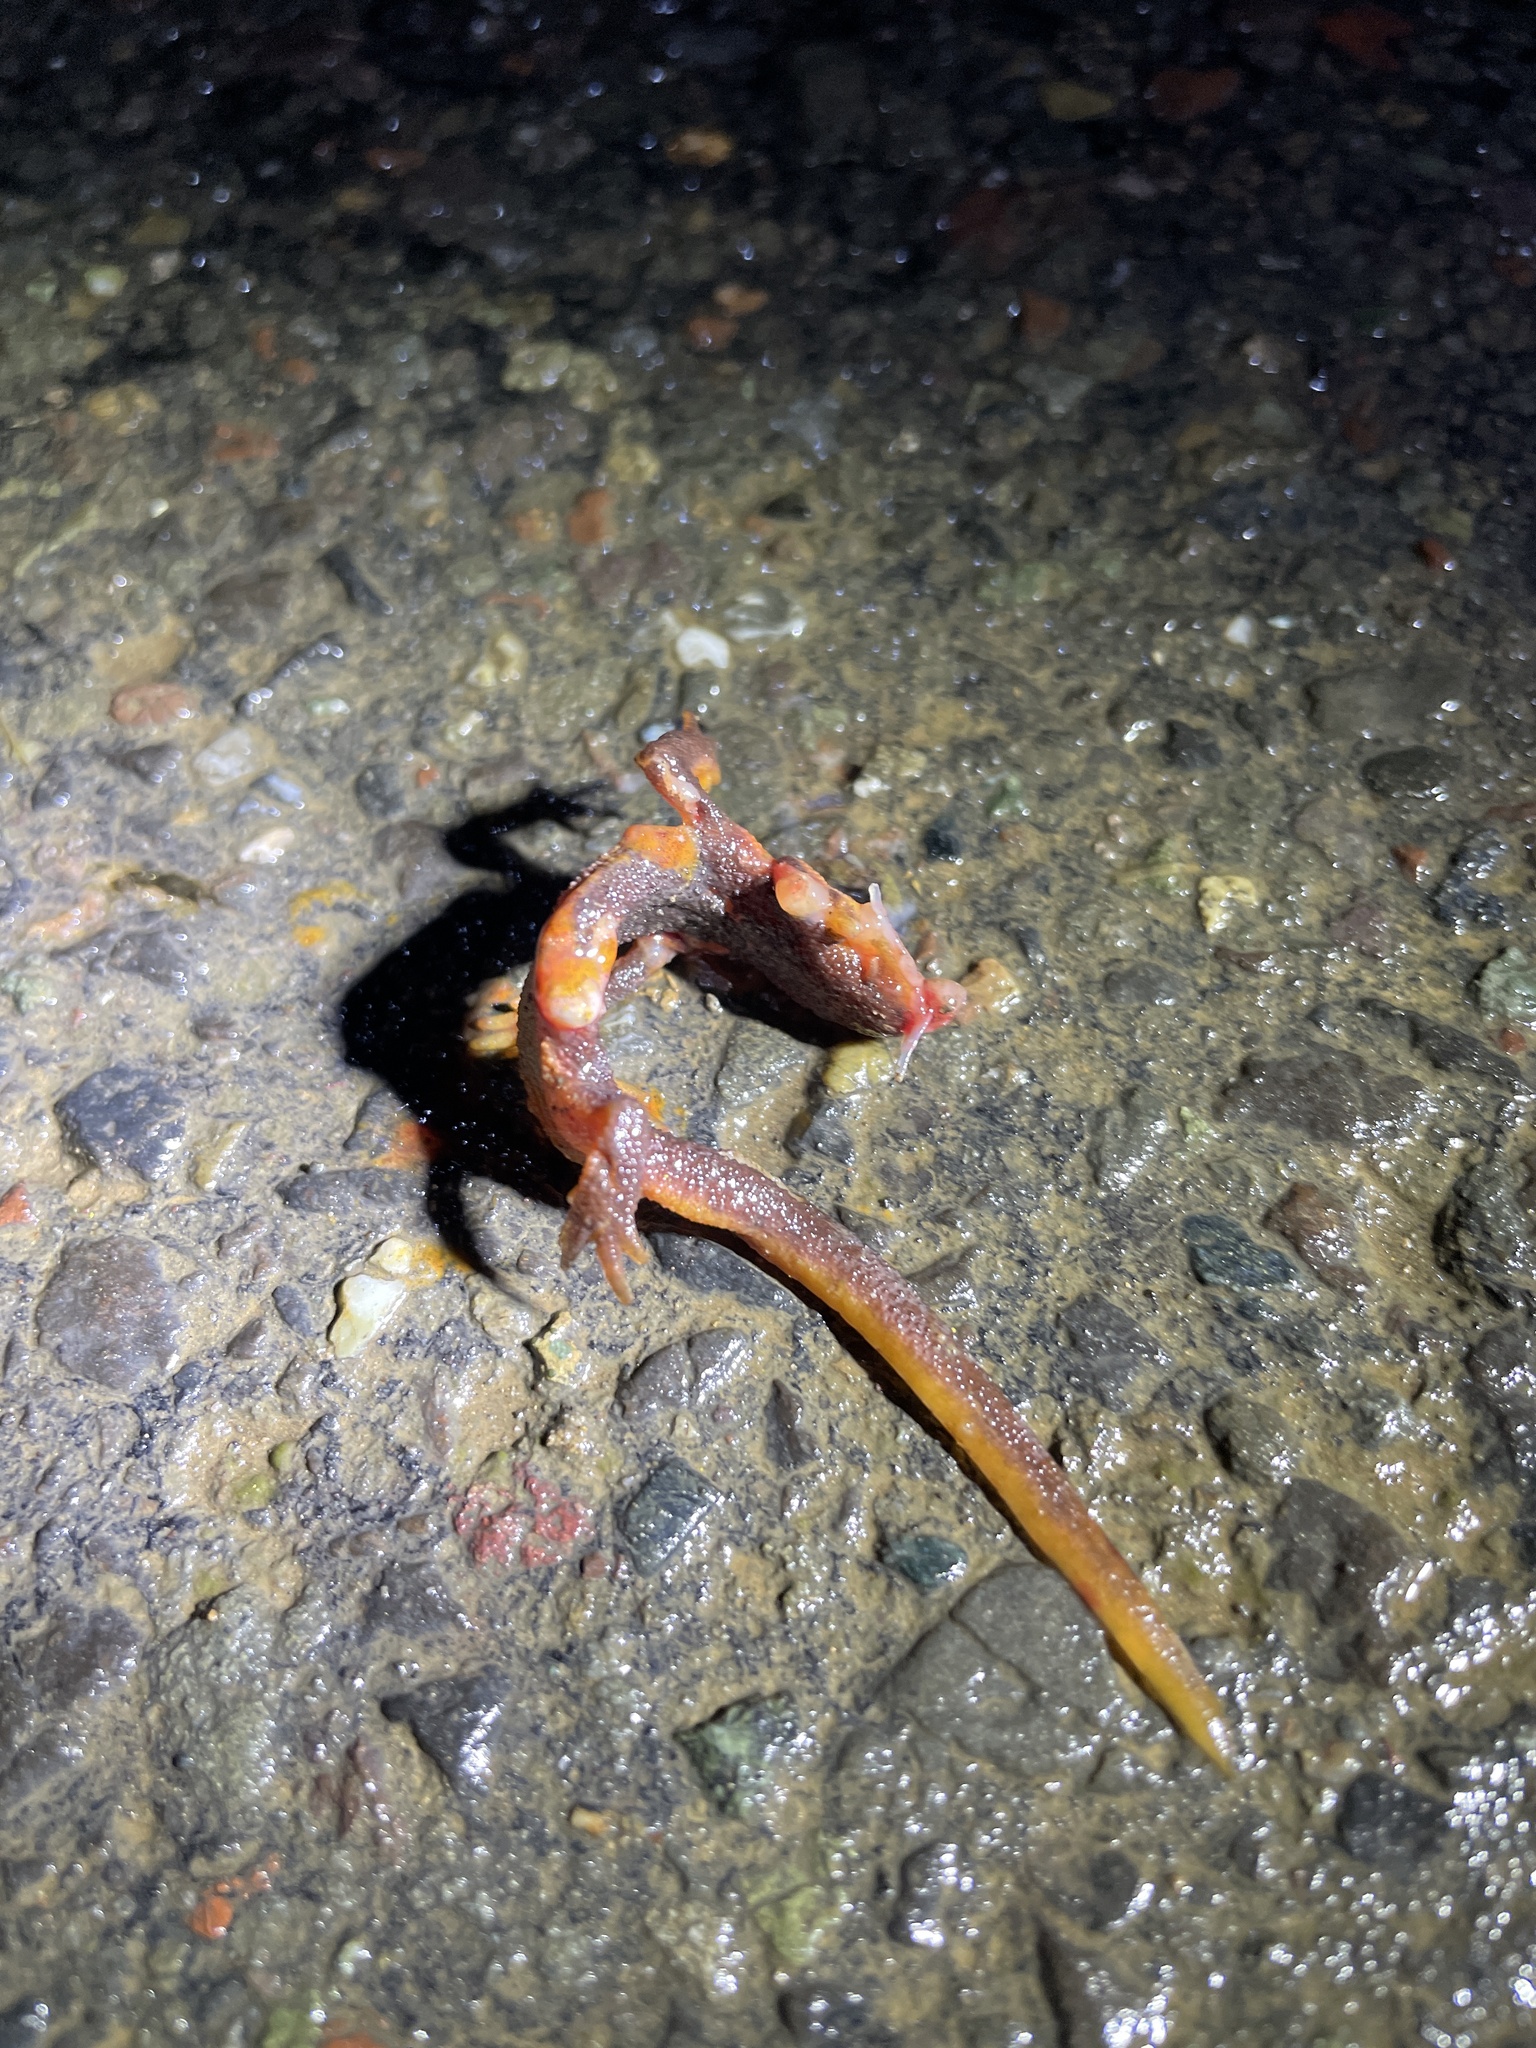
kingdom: Animalia
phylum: Chordata
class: Amphibia
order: Caudata
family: Salamandridae
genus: Taricha
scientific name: Taricha
